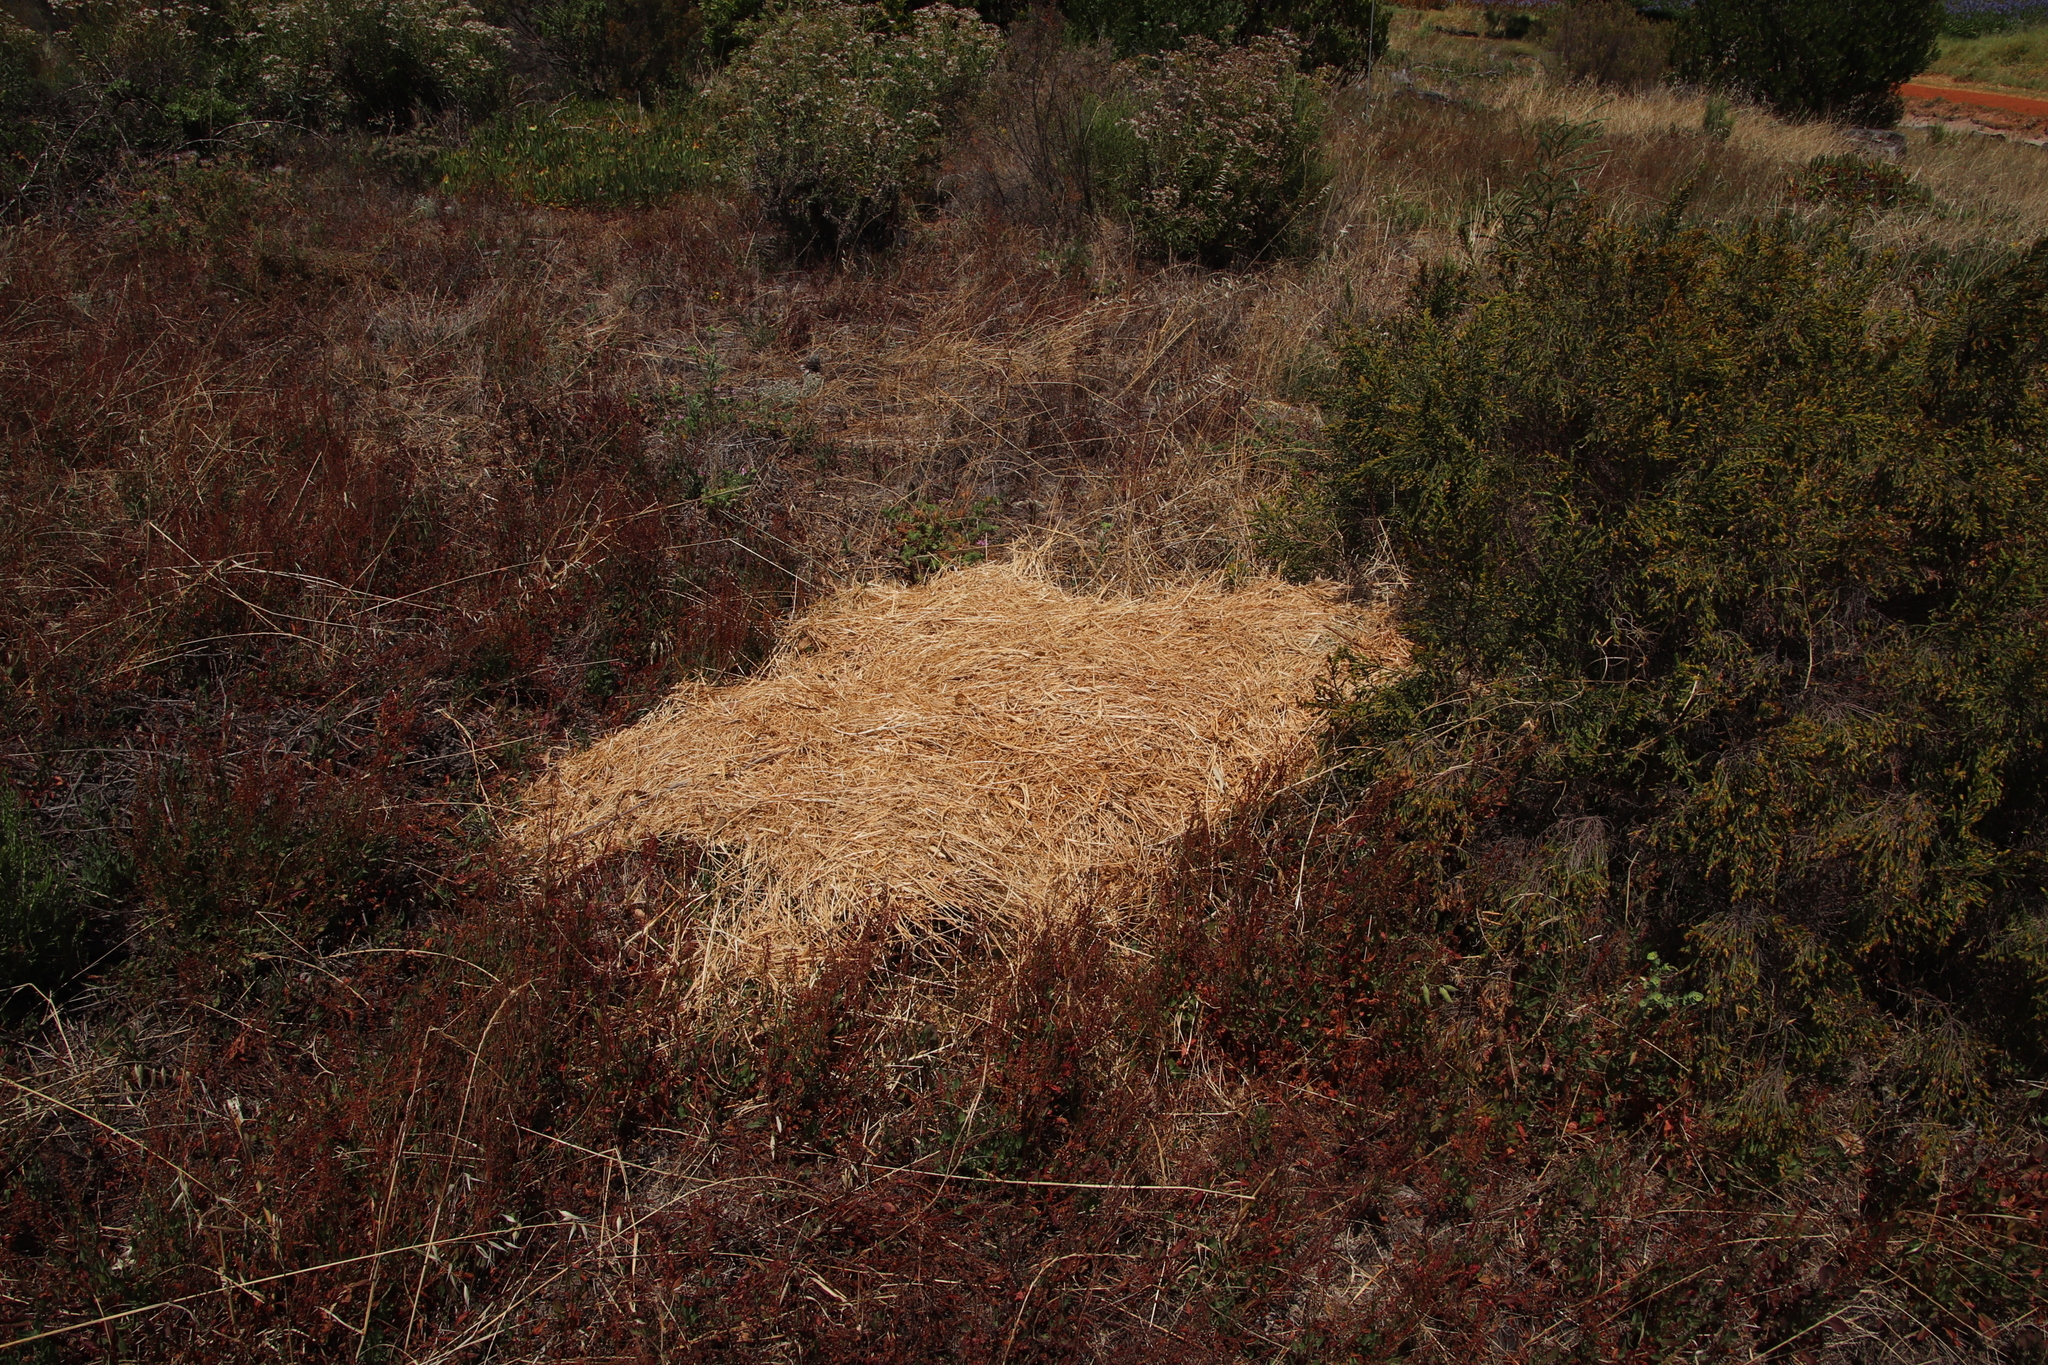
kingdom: Plantae
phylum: Tracheophyta
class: Liliopsida
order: Poales
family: Poaceae
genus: Cenchrus
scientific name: Cenchrus clandestinus
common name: Kikuyugrass
